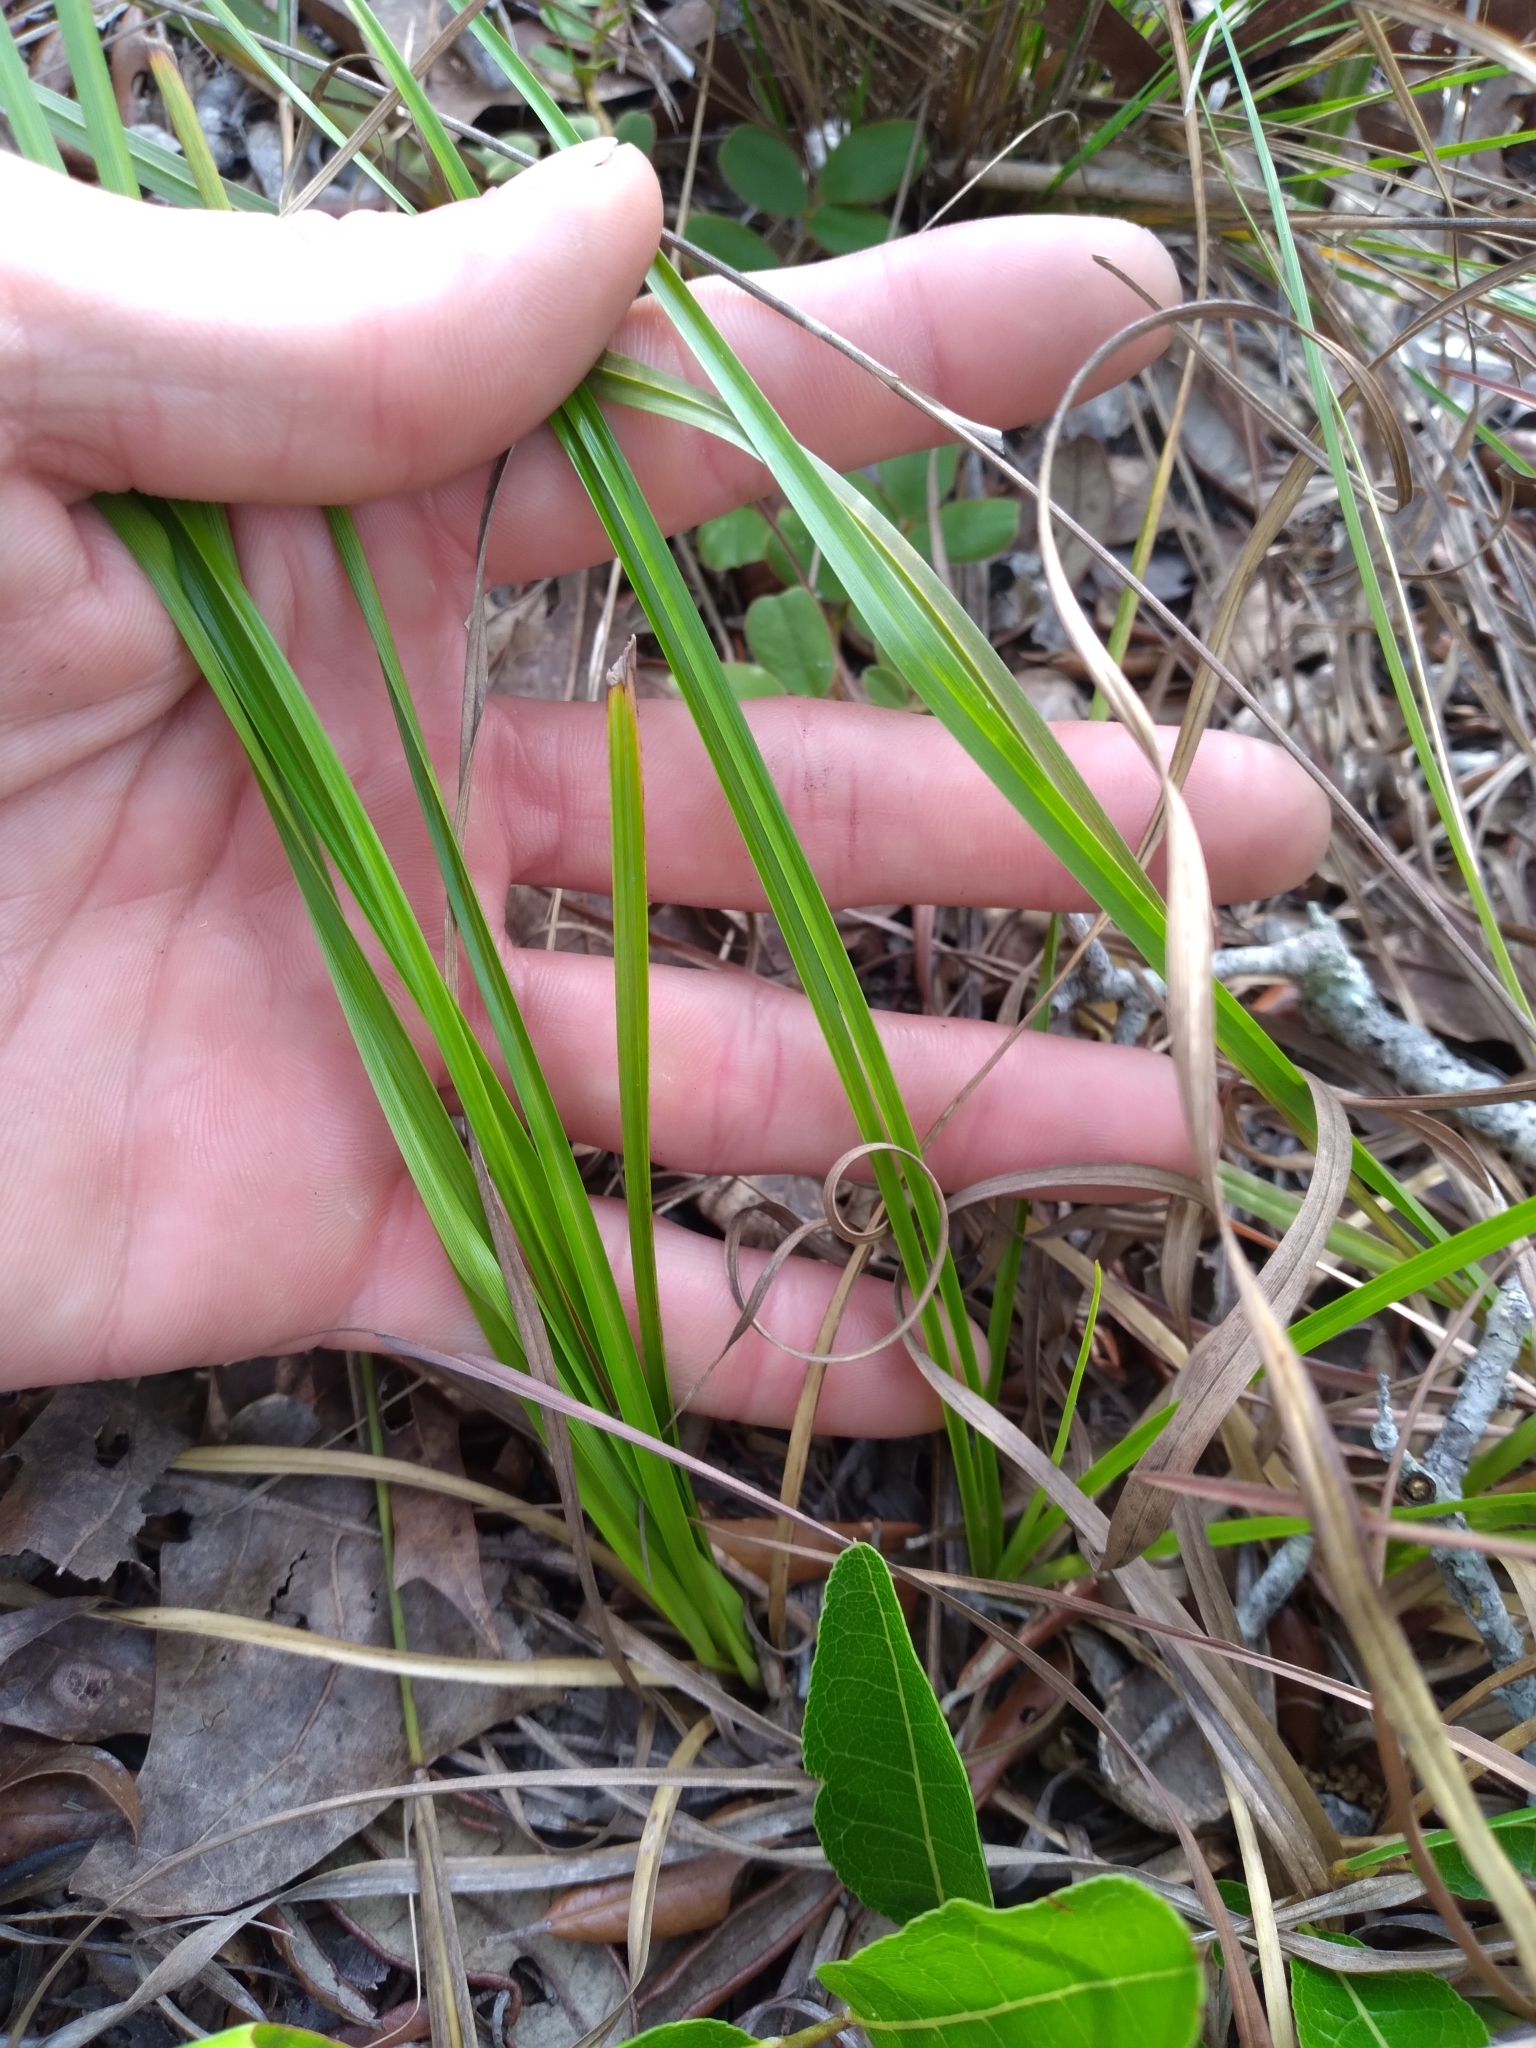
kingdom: Plantae
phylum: Tracheophyta
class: Liliopsida
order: Poales
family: Cyperaceae
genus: Rhynchospora
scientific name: Rhynchospora grayi
